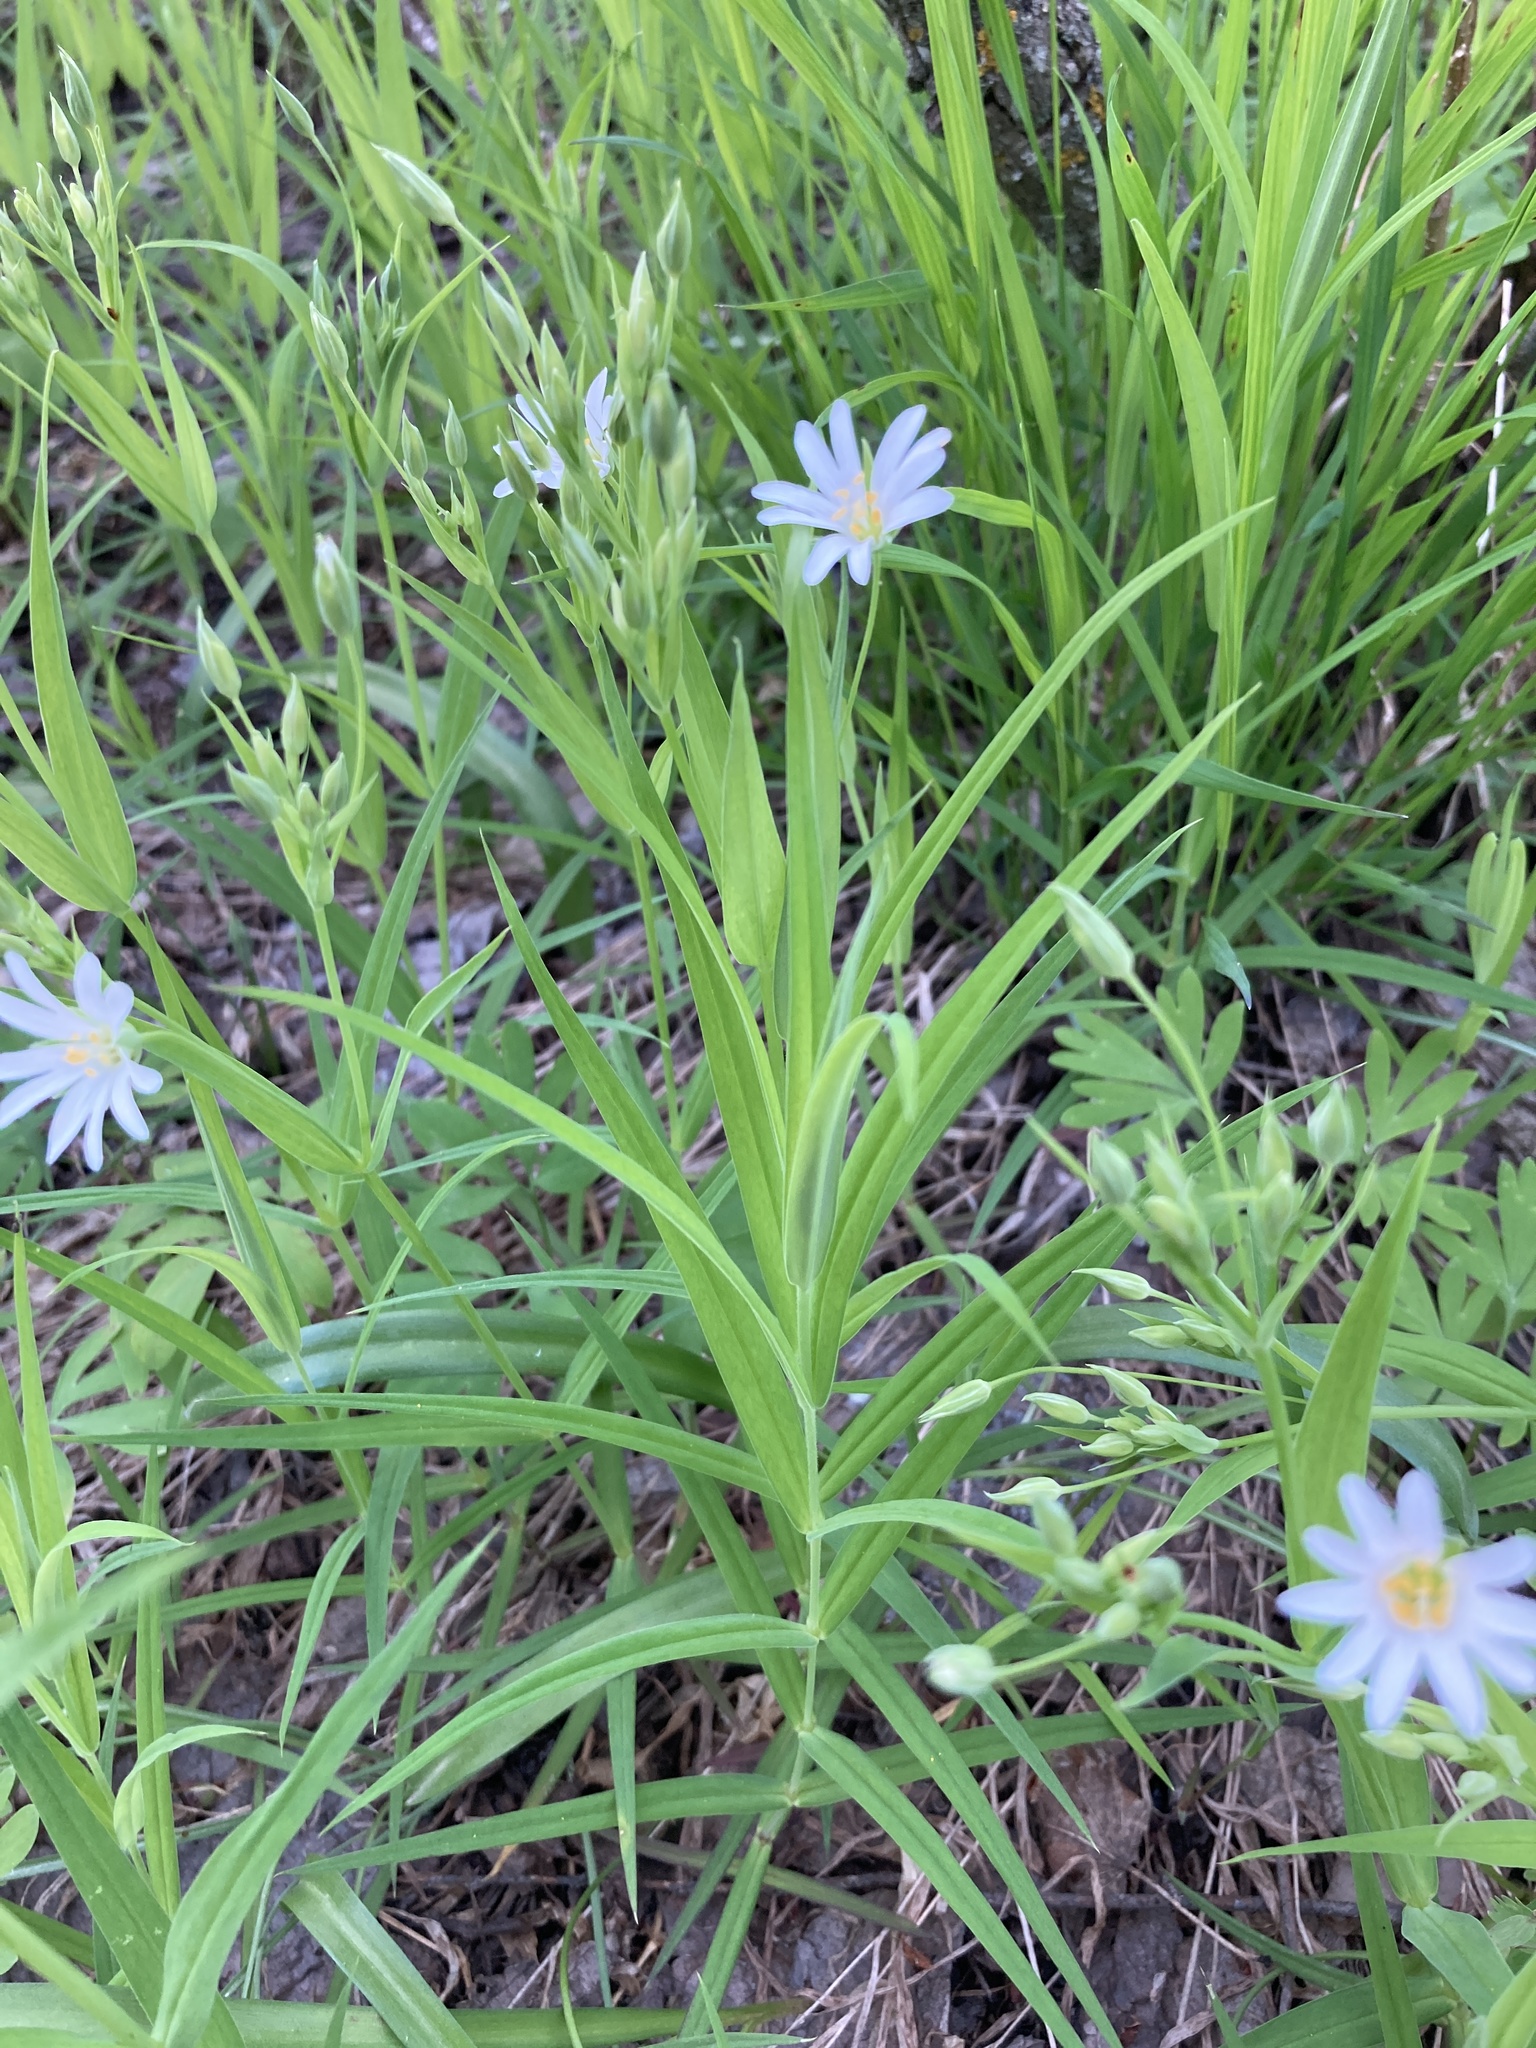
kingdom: Plantae
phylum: Tracheophyta
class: Magnoliopsida
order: Caryophyllales
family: Caryophyllaceae
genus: Rabelera
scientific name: Rabelera holostea
